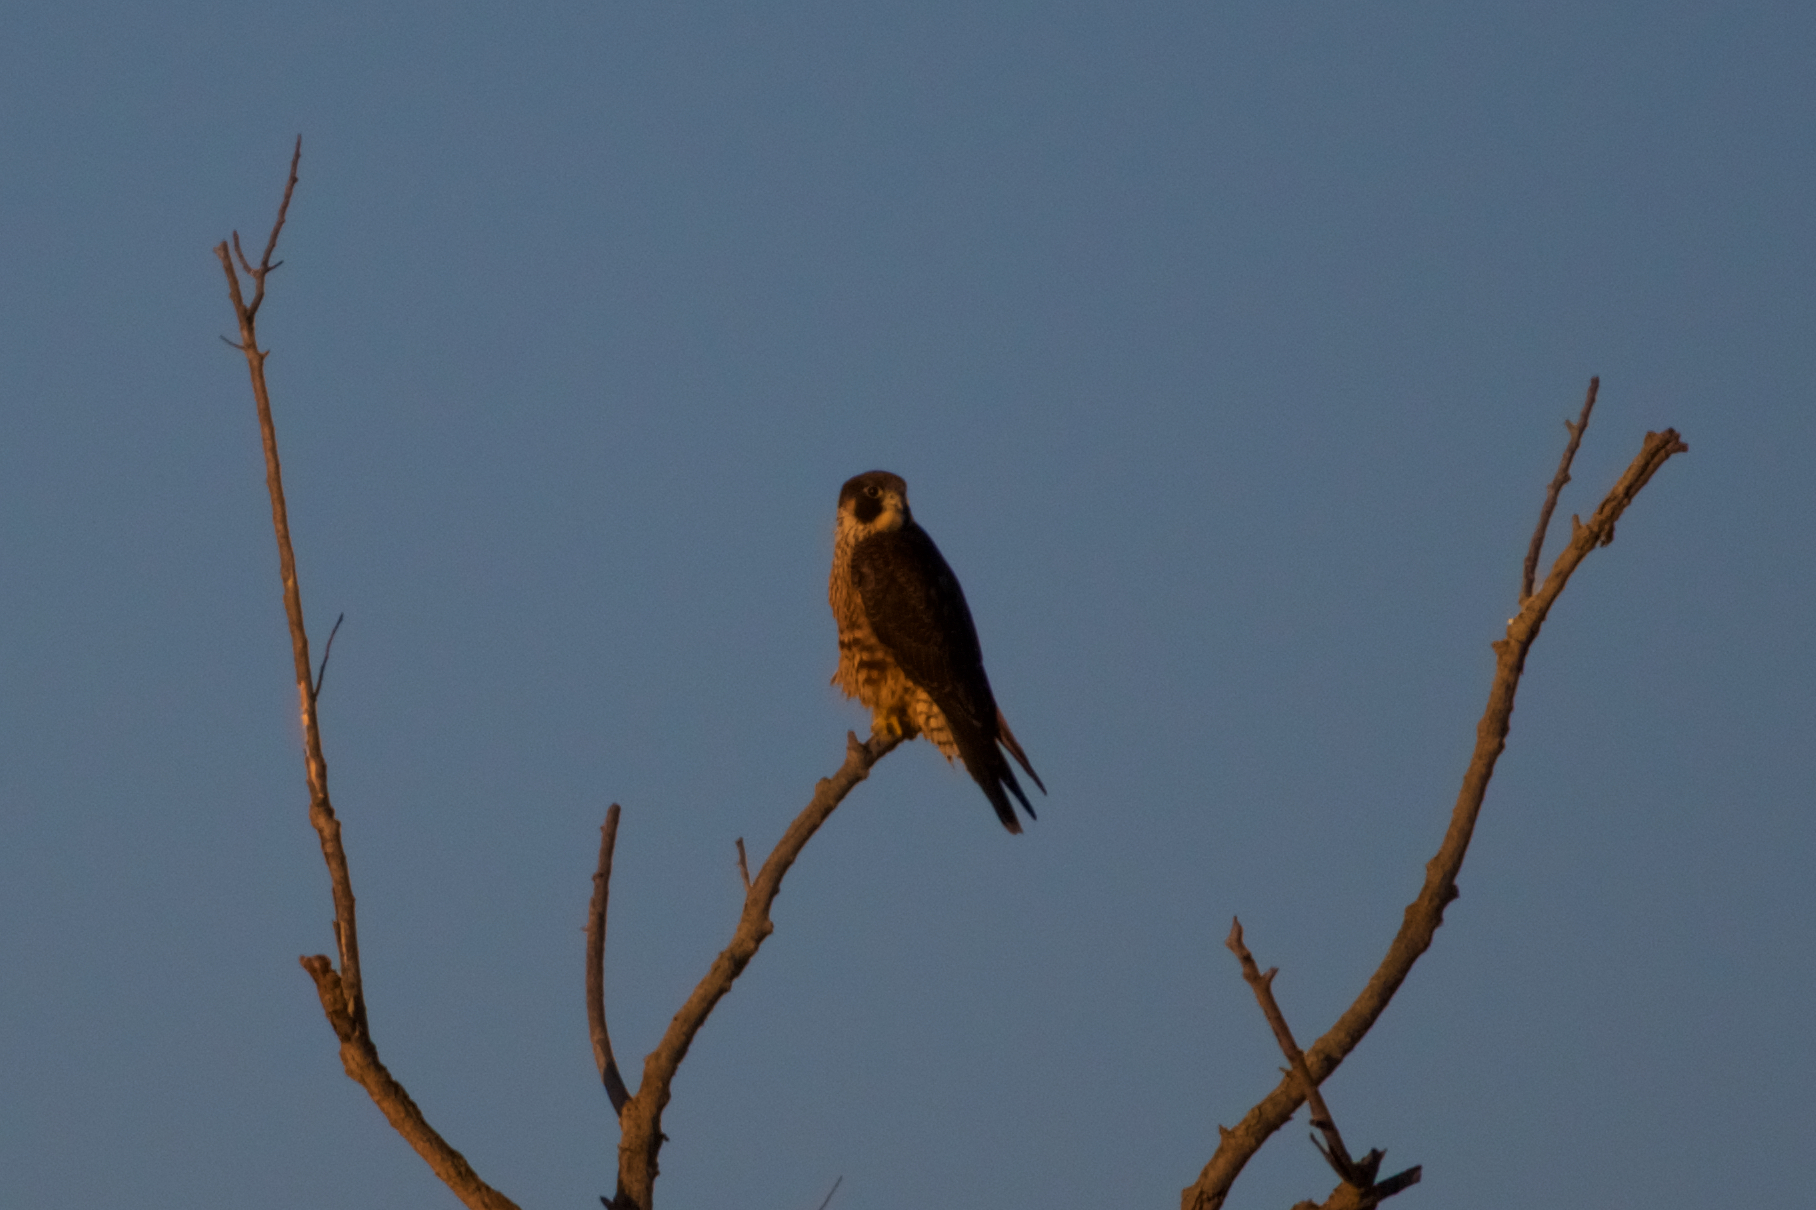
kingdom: Animalia
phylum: Chordata
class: Aves
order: Falconiformes
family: Falconidae
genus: Falco
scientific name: Falco peregrinus
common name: Peregrine falcon
